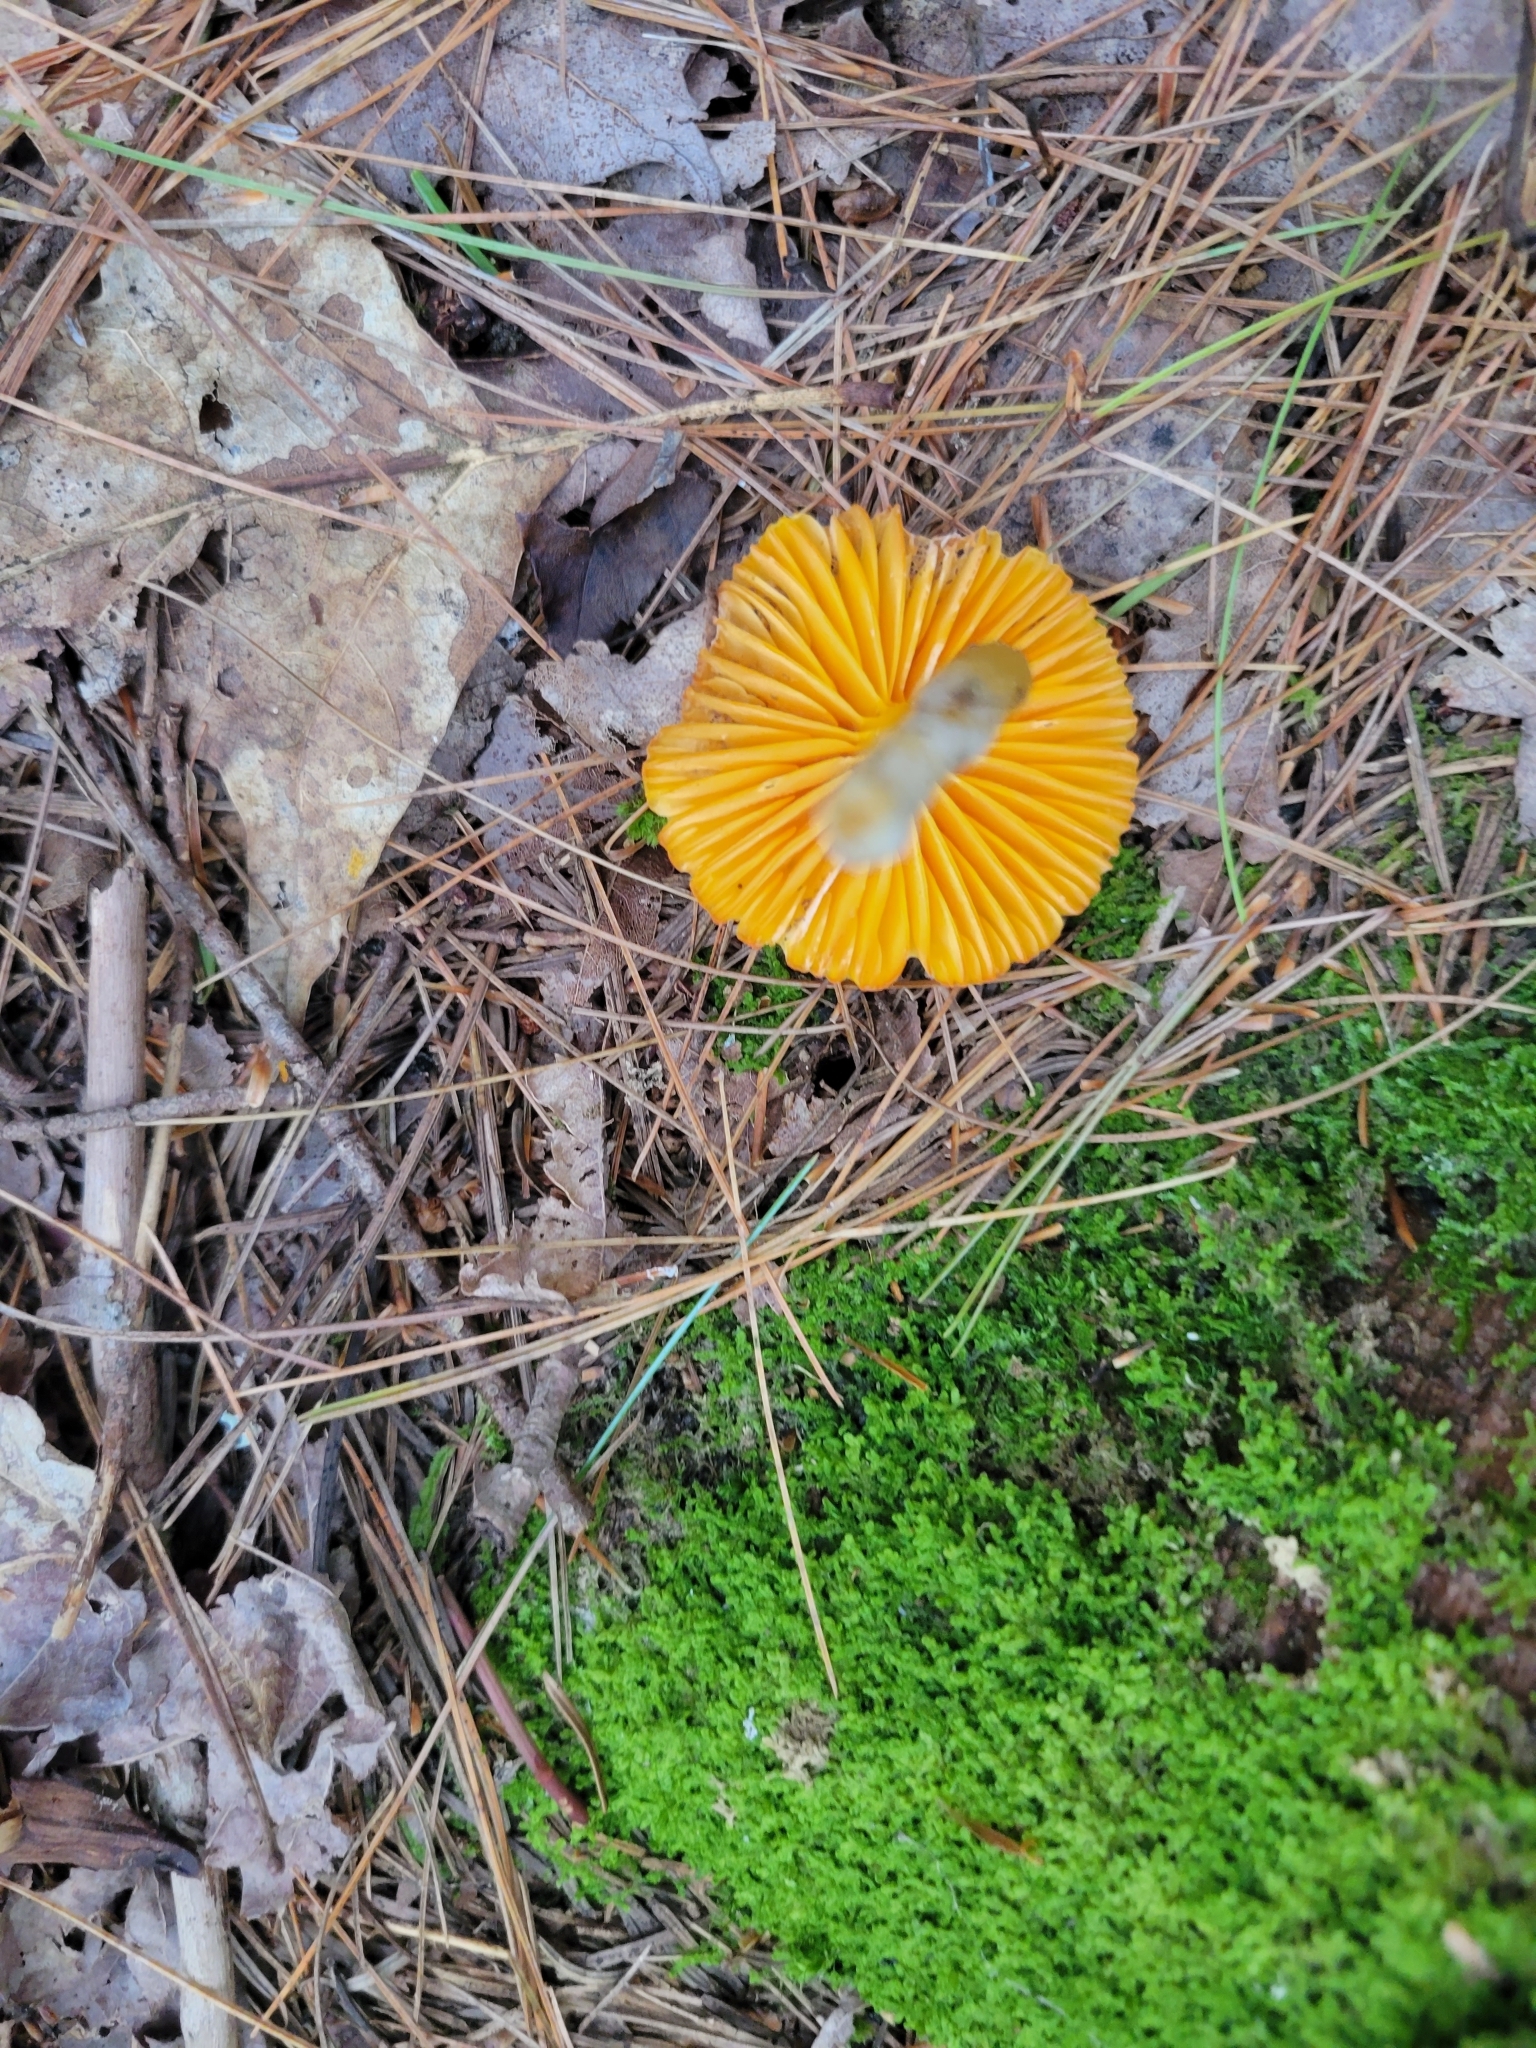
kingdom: Fungi
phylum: Basidiomycota
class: Agaricomycetes
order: Agaricales
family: Hygrophoraceae
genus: Humidicutis
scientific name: Humidicutis marginata
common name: Orange gilled waxcap
